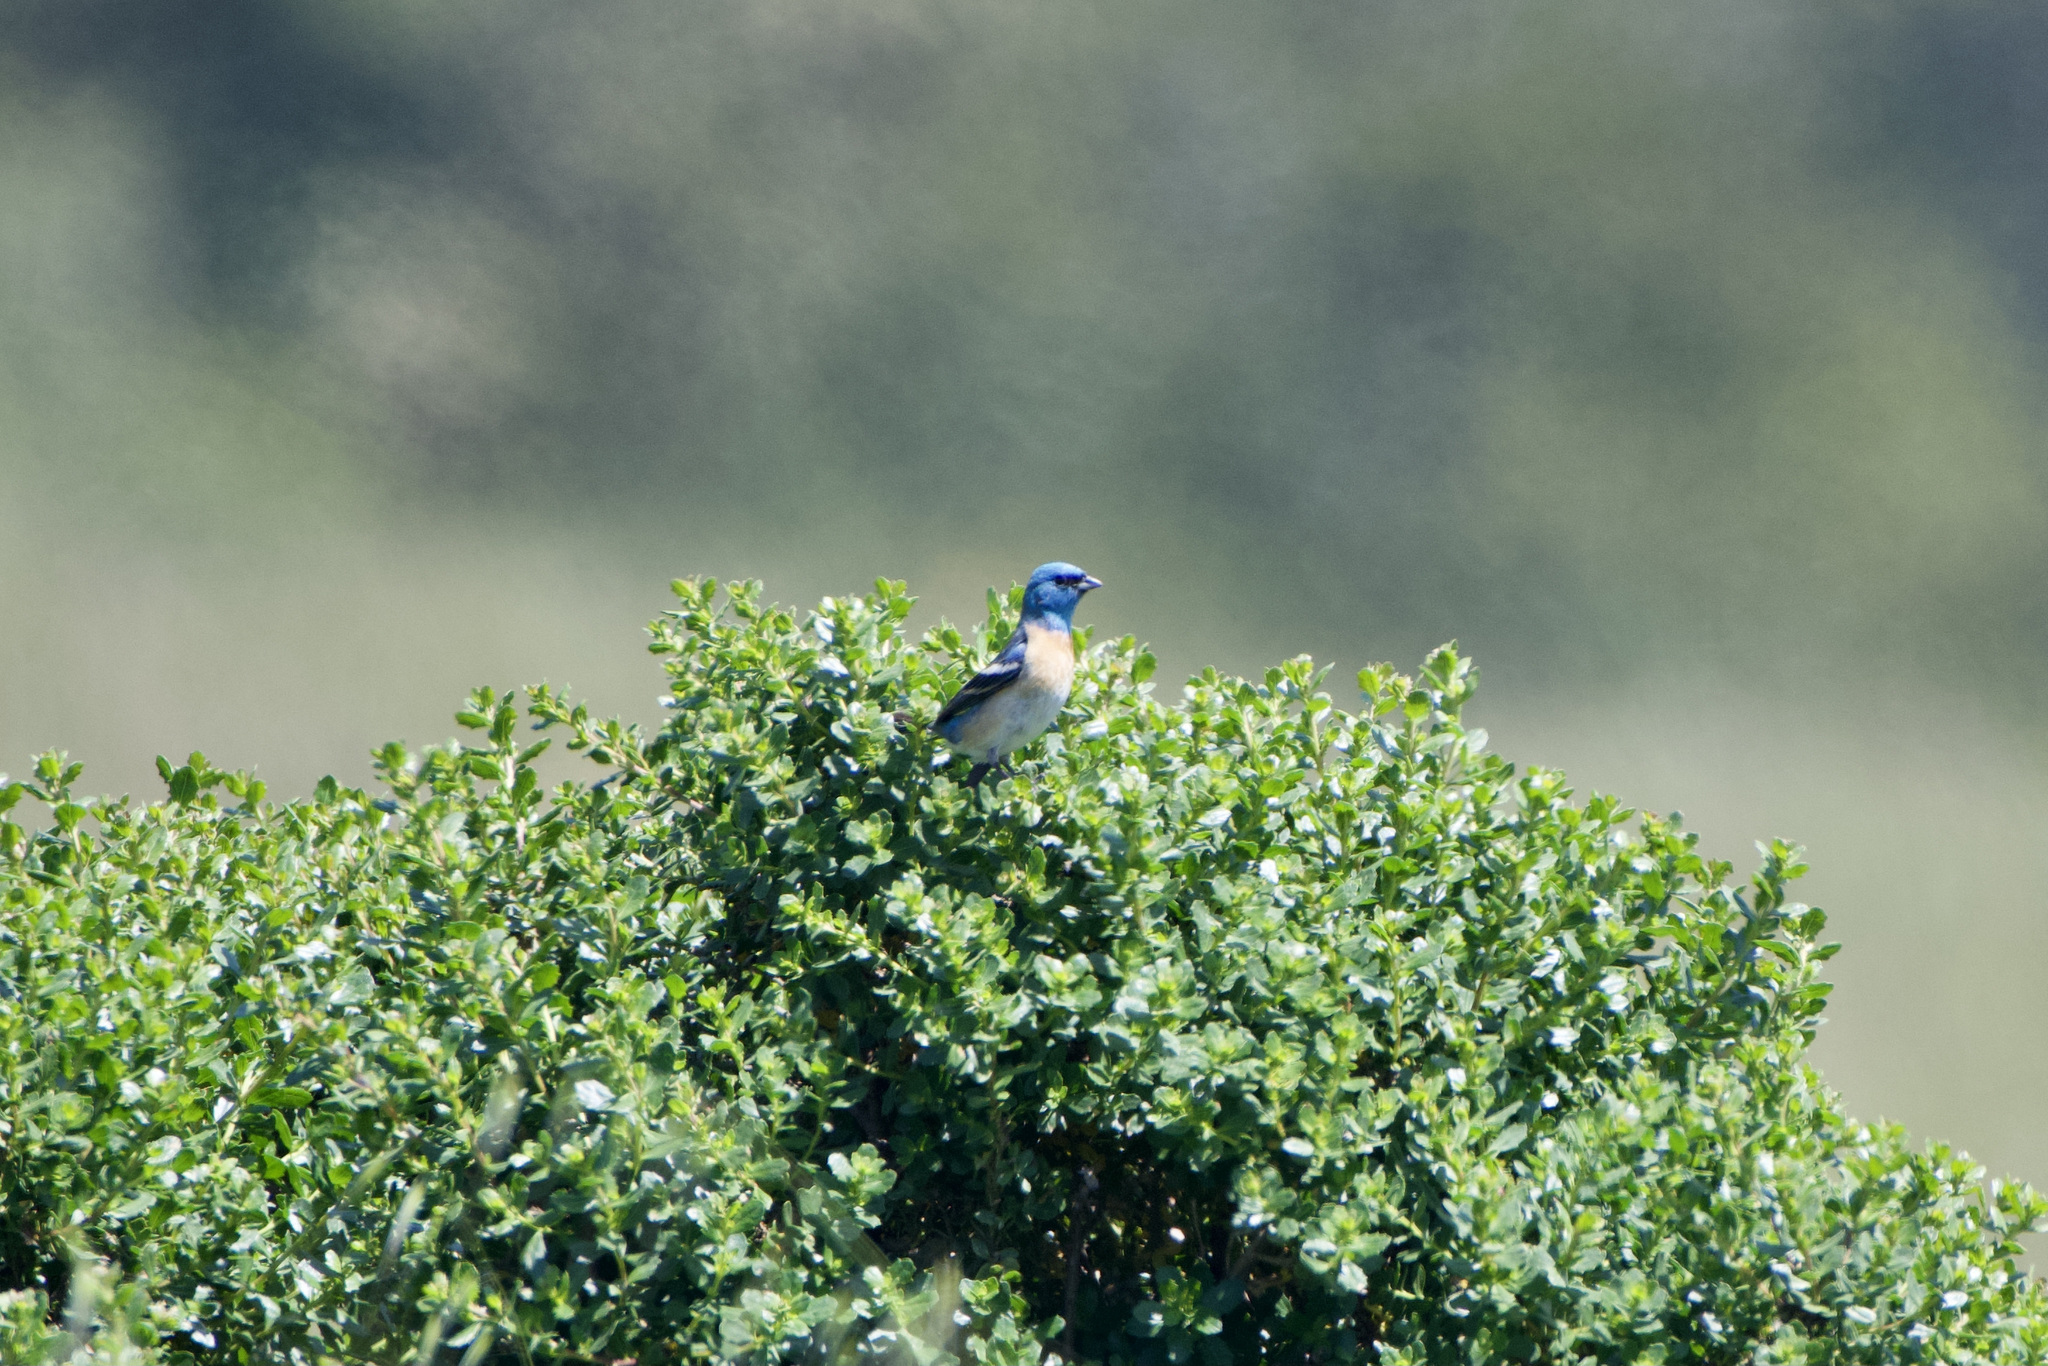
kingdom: Animalia
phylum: Chordata
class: Aves
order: Passeriformes
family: Cardinalidae
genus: Passerina
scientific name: Passerina amoena
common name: Lazuli bunting
